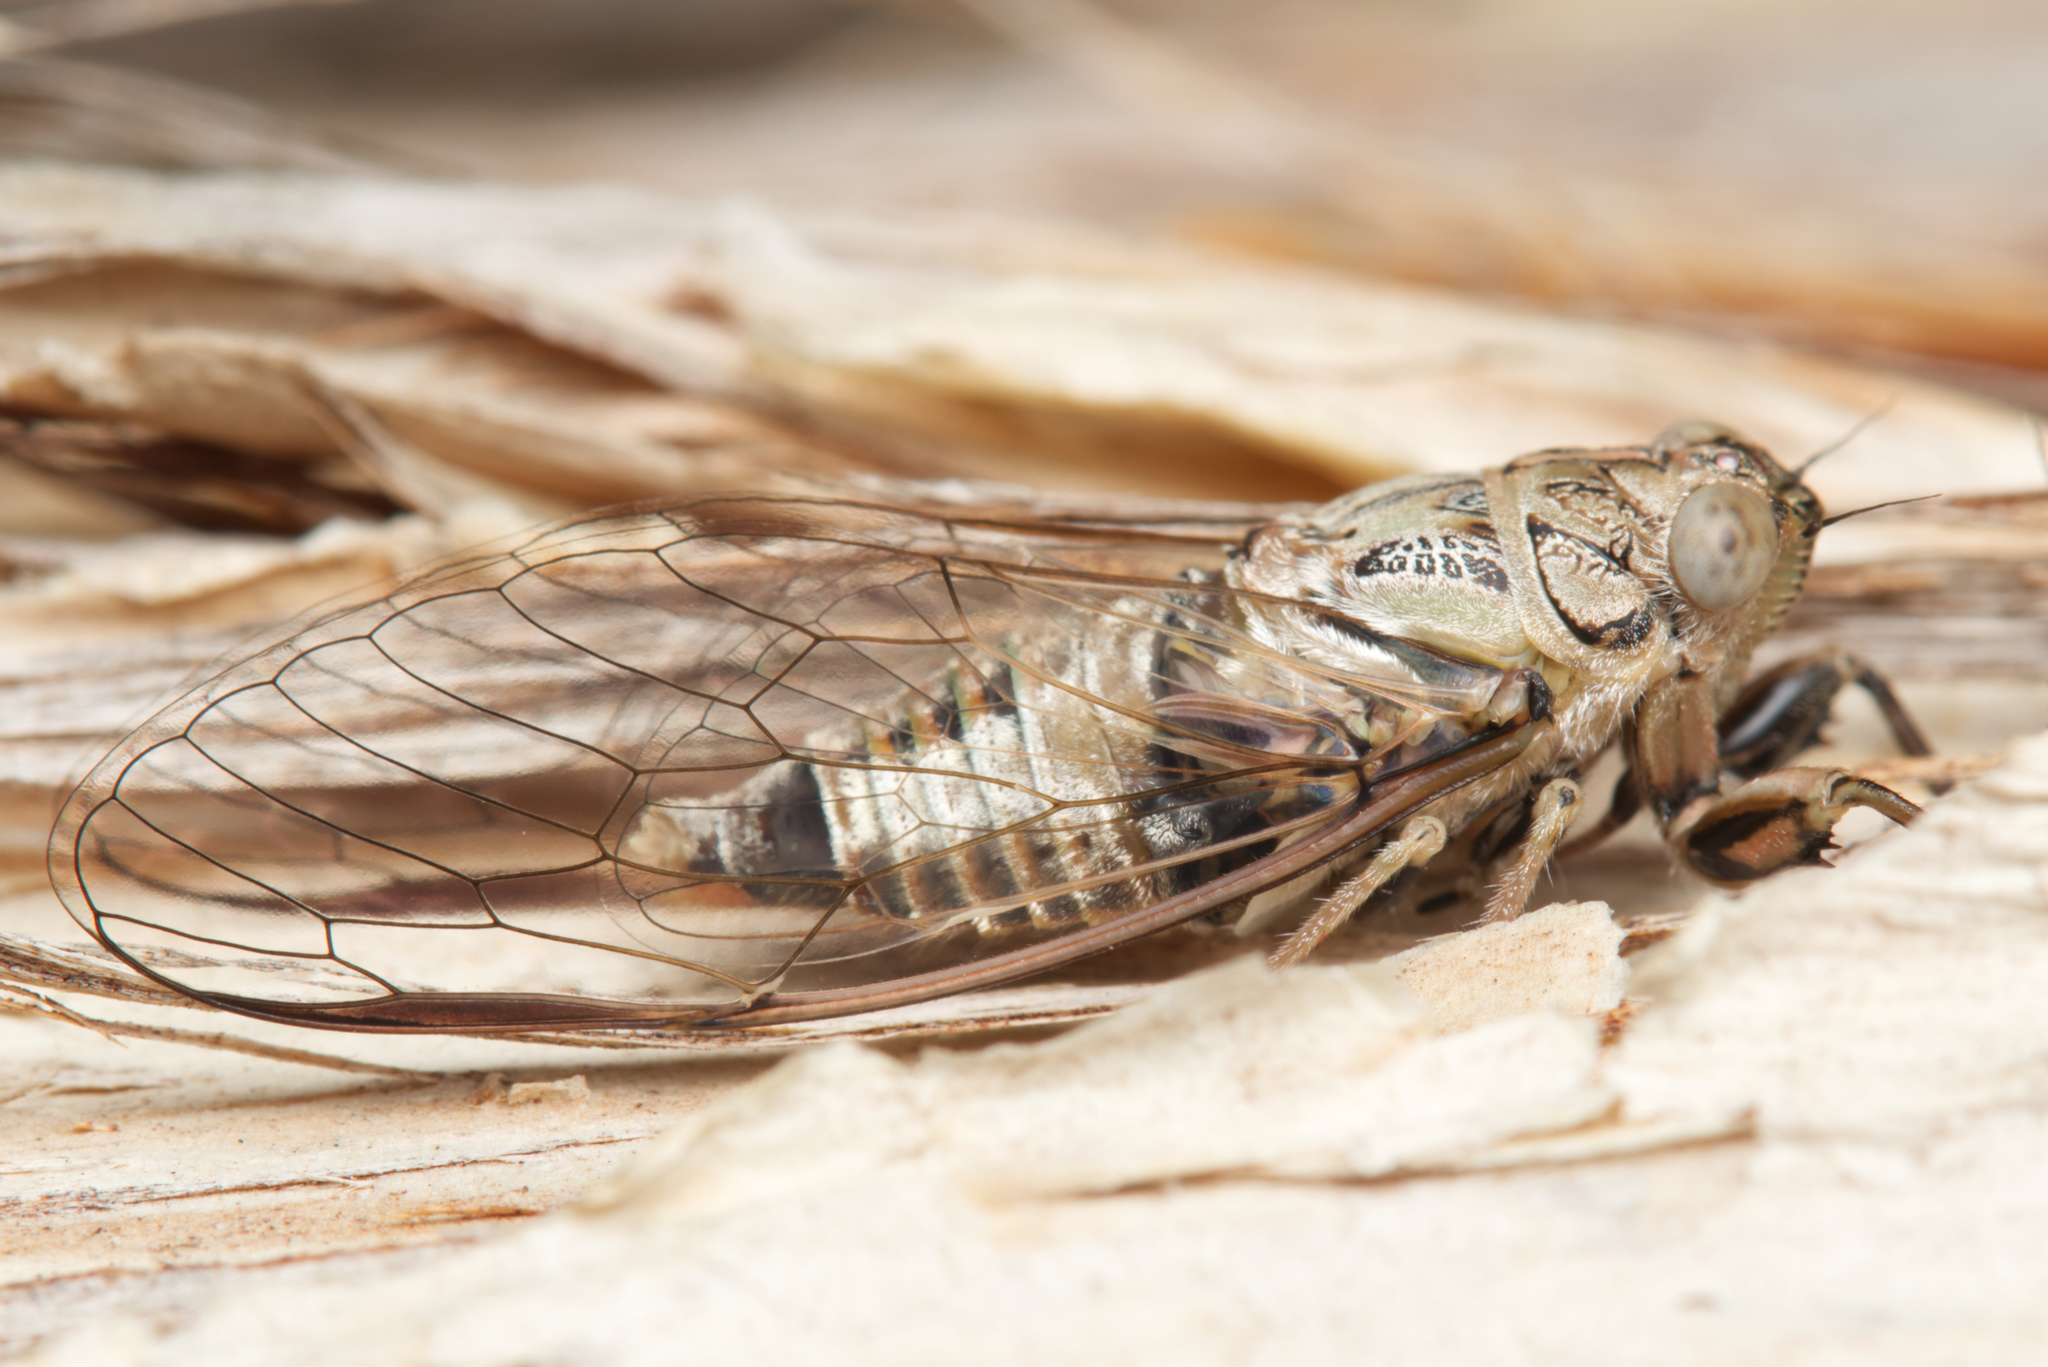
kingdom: Animalia
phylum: Arthropoda
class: Insecta
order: Hemiptera
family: Cicadidae
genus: Telmapsalta
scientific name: Telmapsalta hackeri
